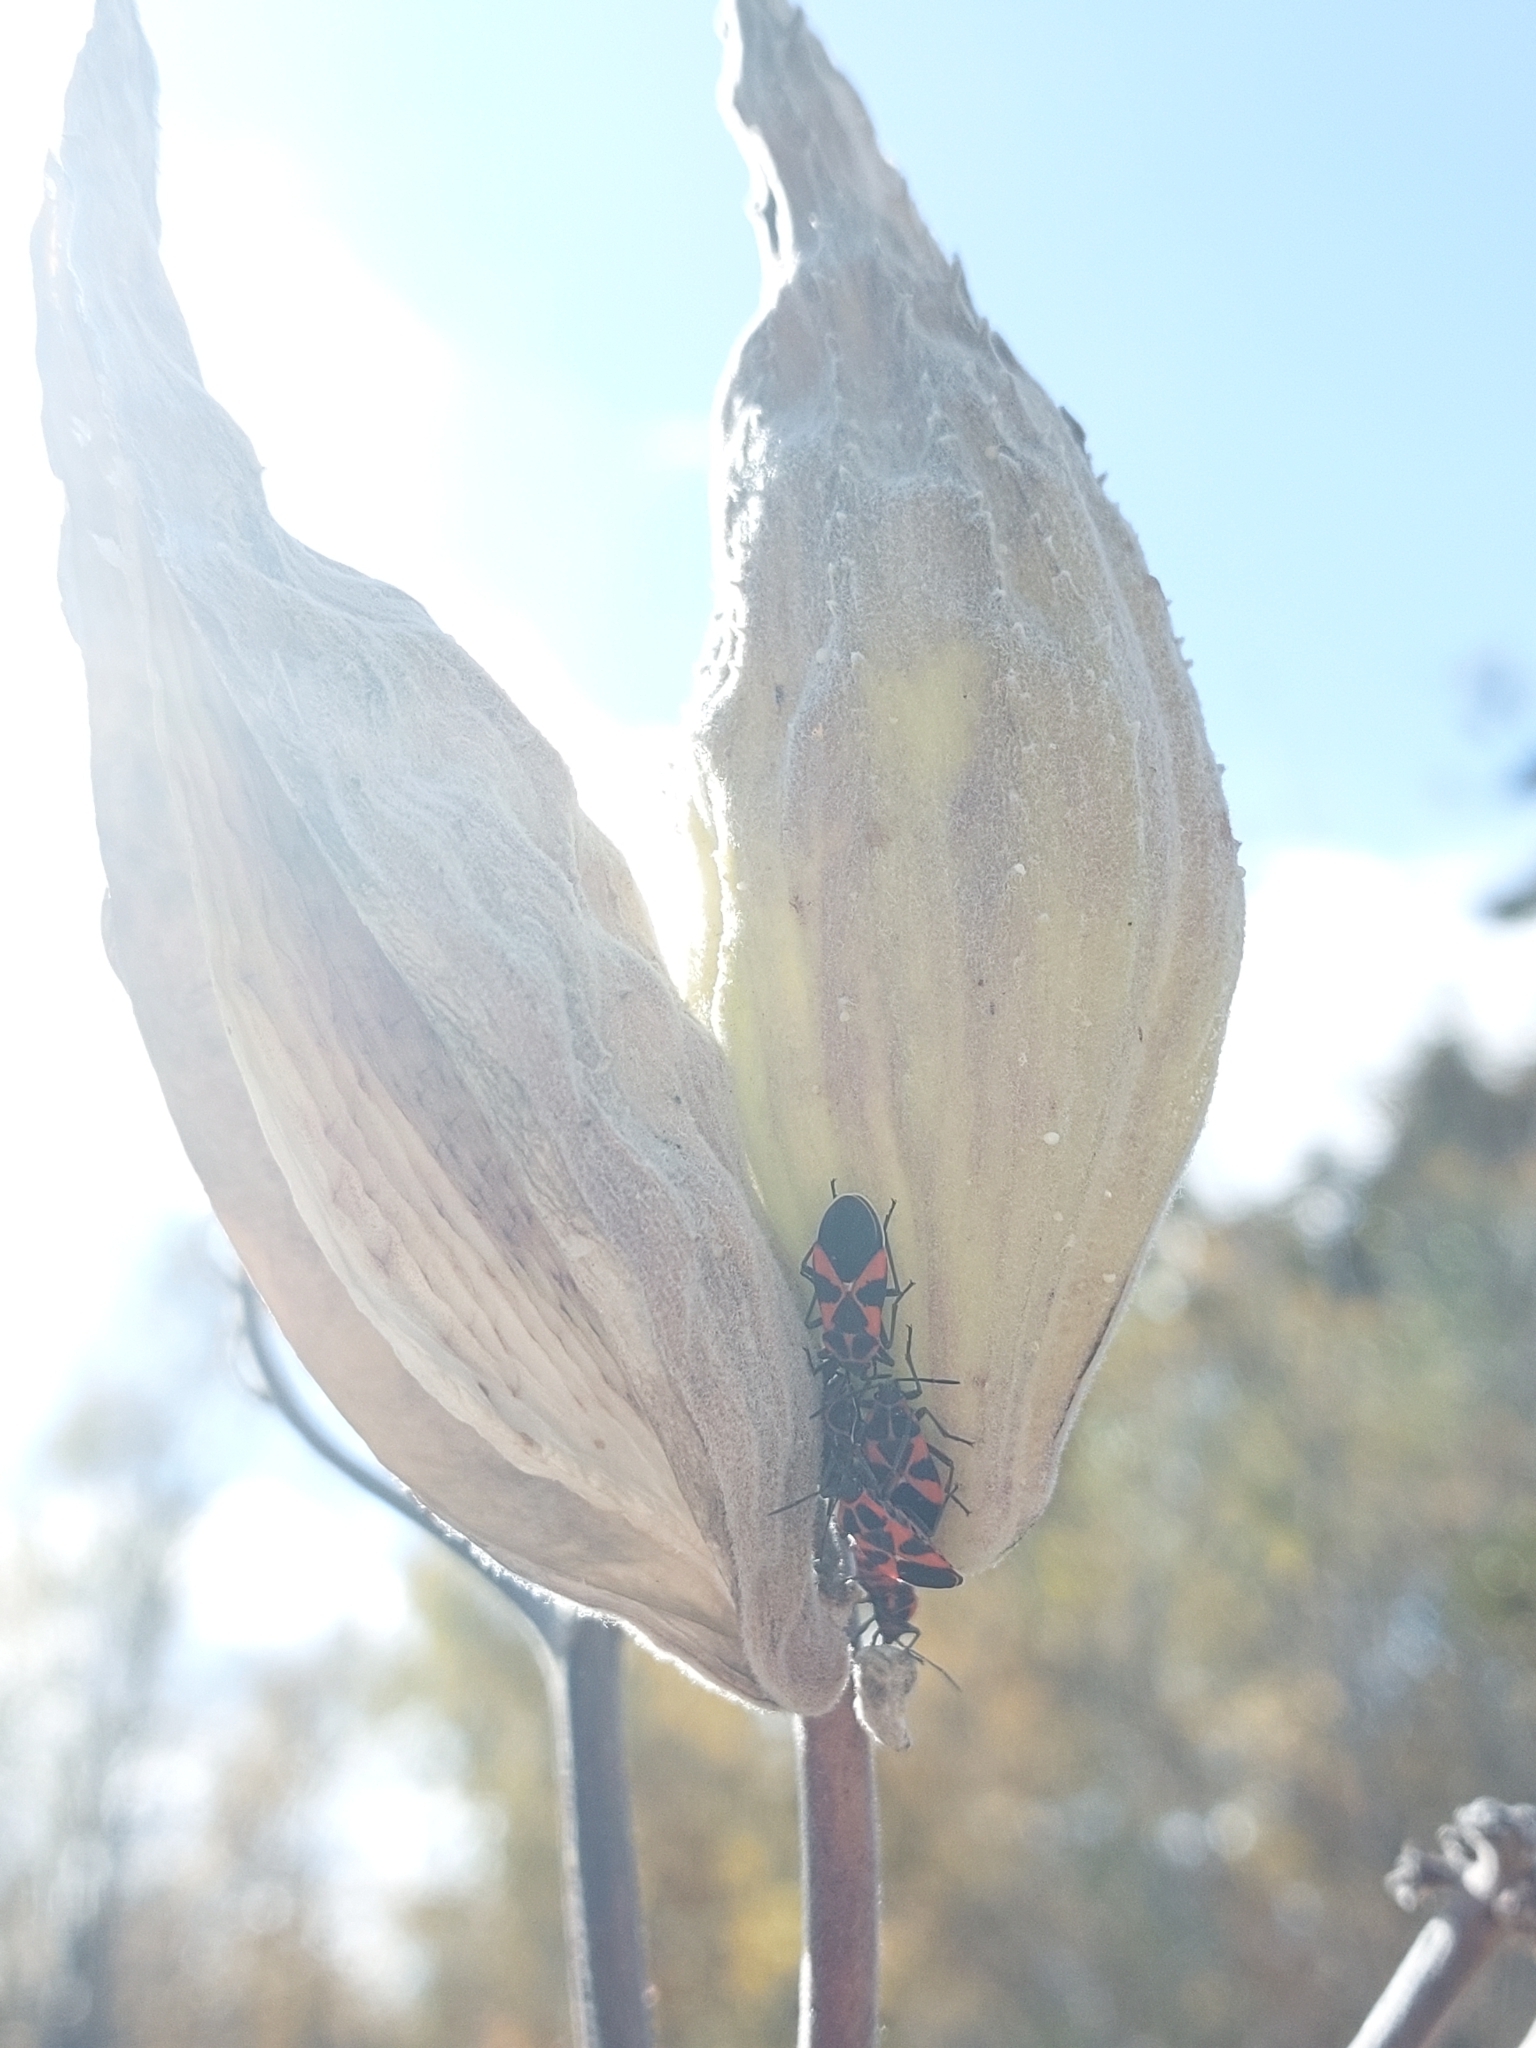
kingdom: Animalia
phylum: Arthropoda
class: Insecta
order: Hemiptera
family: Lygaeidae
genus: Tropidothorax
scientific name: Tropidothorax leucopterus
